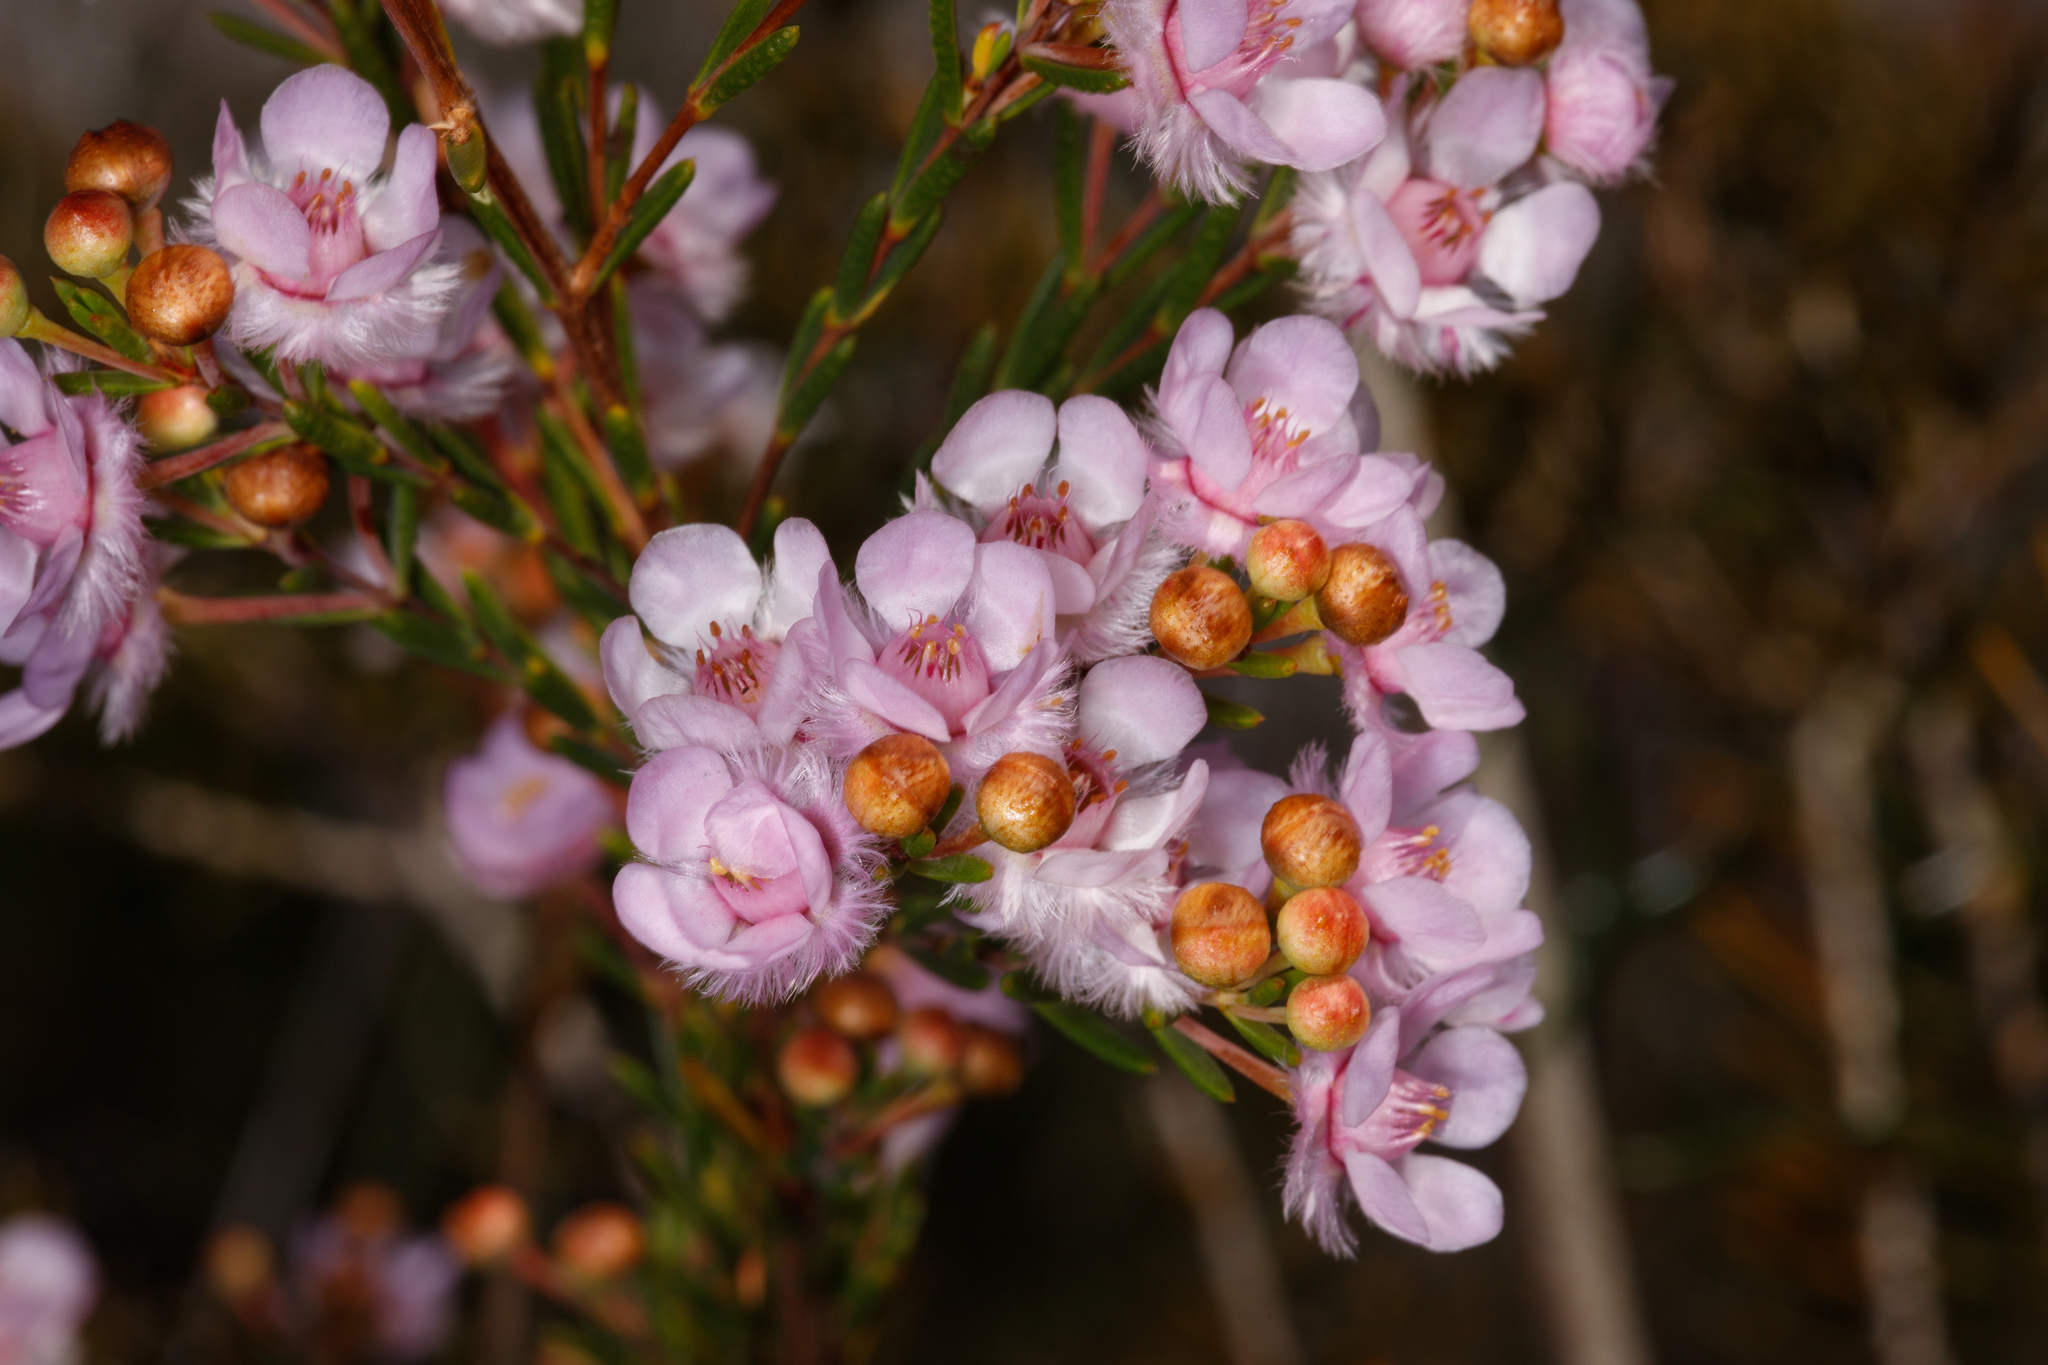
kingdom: Plantae
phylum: Tracheophyta
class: Magnoliopsida
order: Myrtales
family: Myrtaceae
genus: Verticordia
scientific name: Verticordia picta
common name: Painted feather-flower
